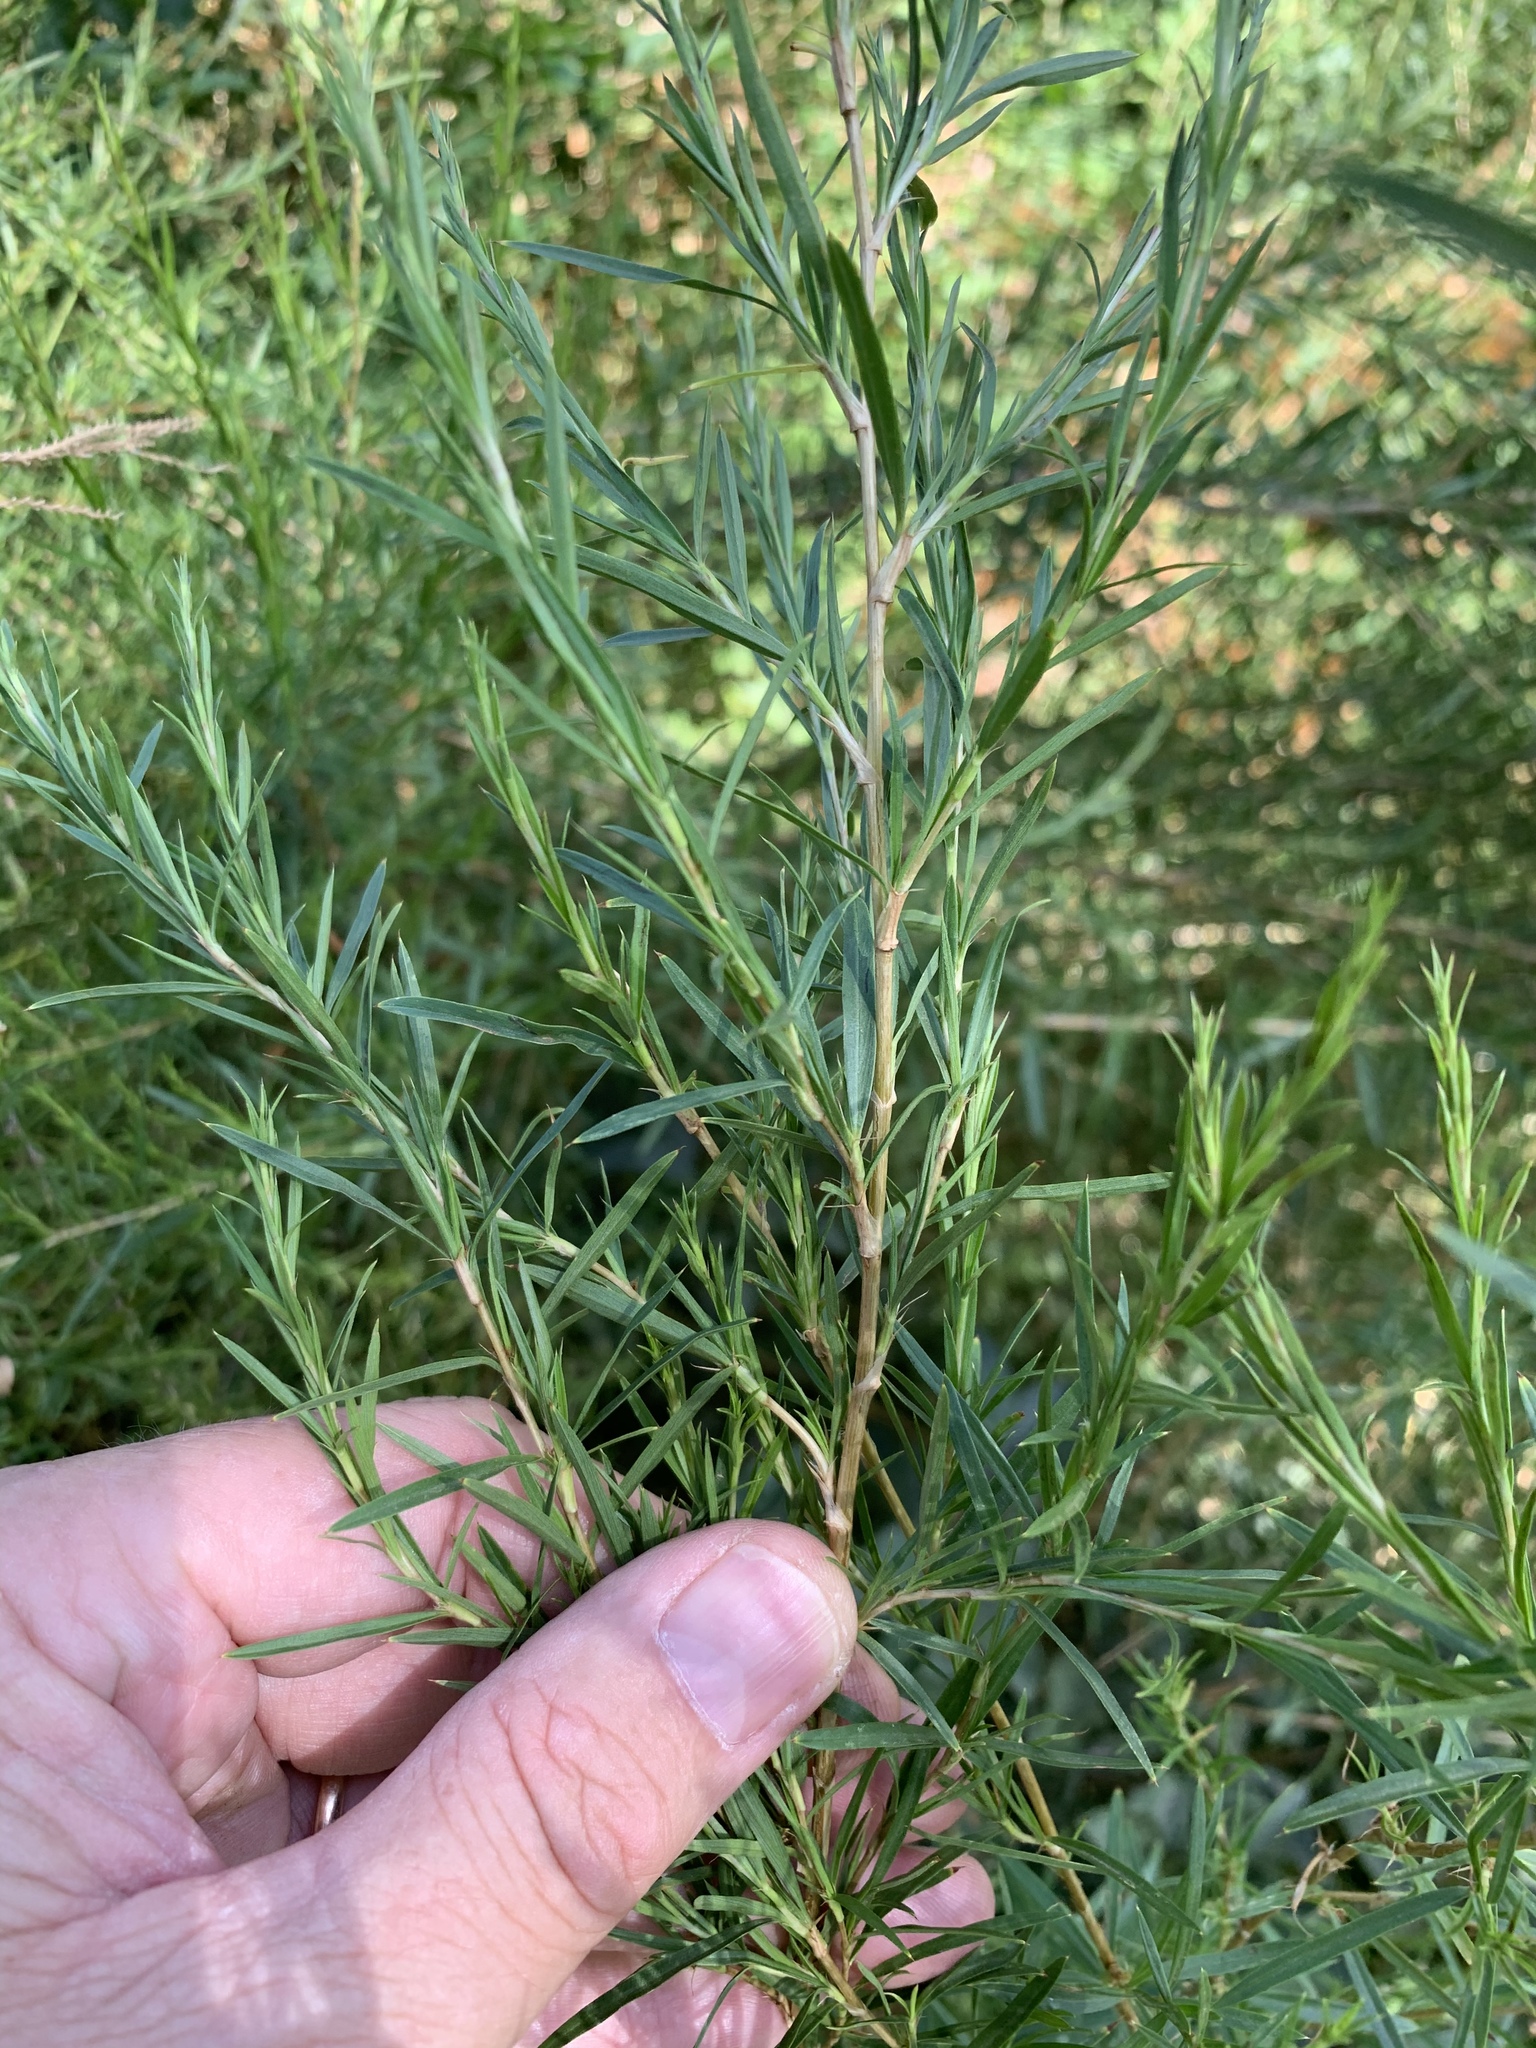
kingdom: Plantae
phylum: Tracheophyta
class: Magnoliopsida
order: Rosales
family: Rosaceae
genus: Cliffortia
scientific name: Cliffortia strobilifera
